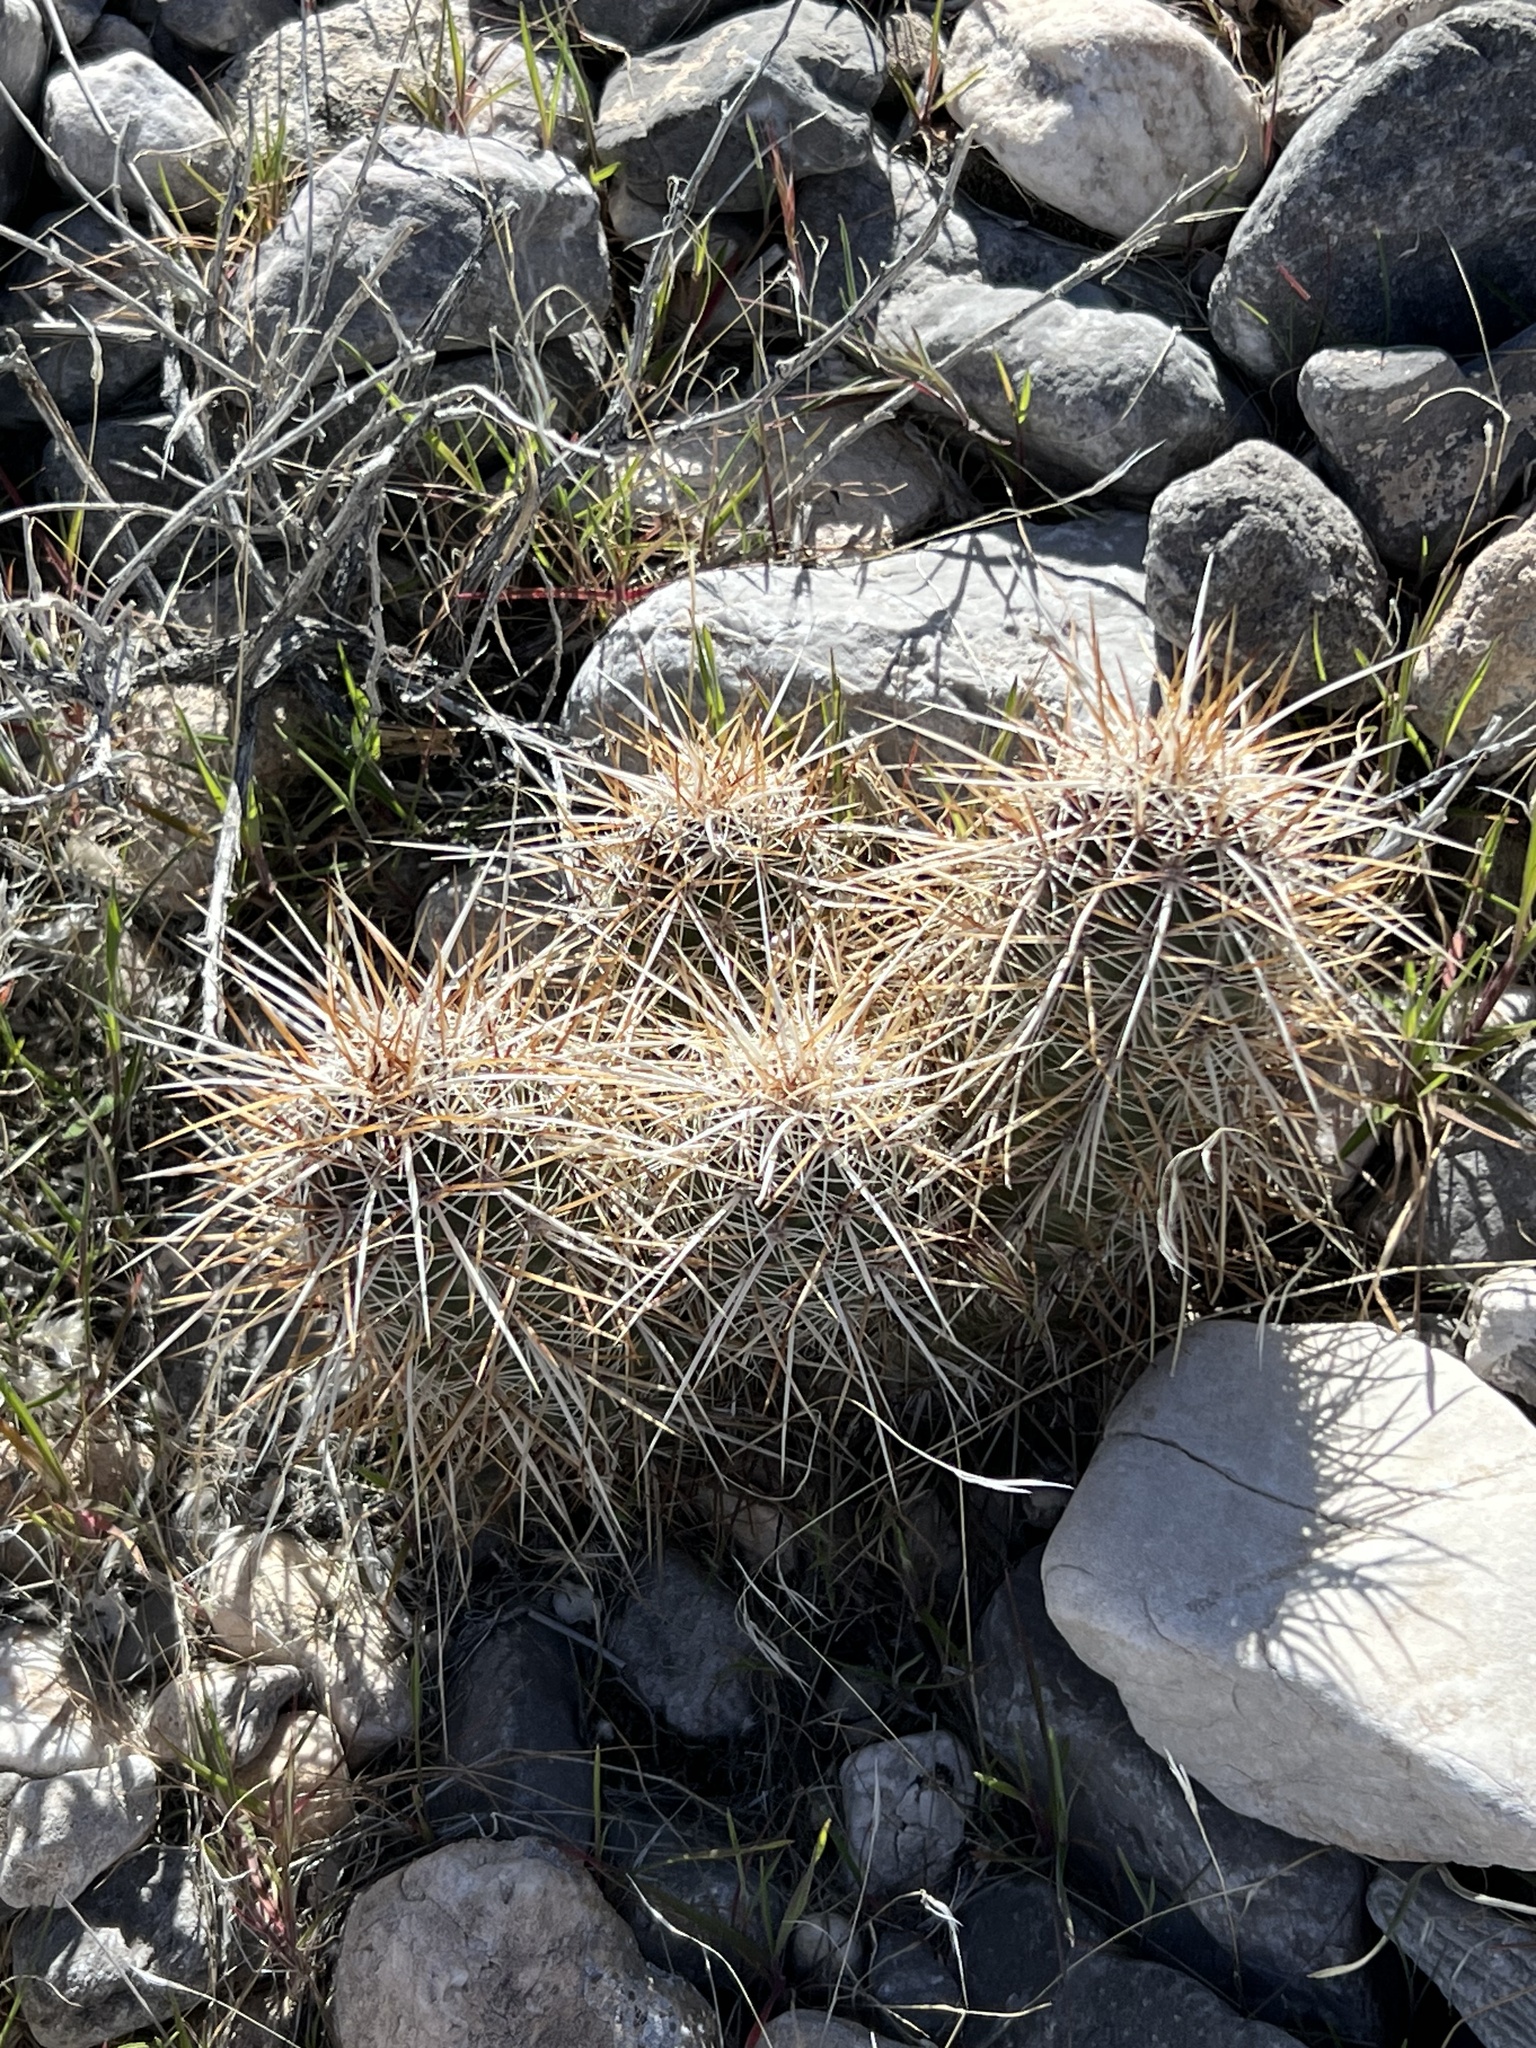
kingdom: Plantae
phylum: Tracheophyta
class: Magnoliopsida
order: Caryophyllales
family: Cactaceae
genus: Echinocereus
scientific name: Echinocereus engelmannii
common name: Engelmann's hedgehog cactus
